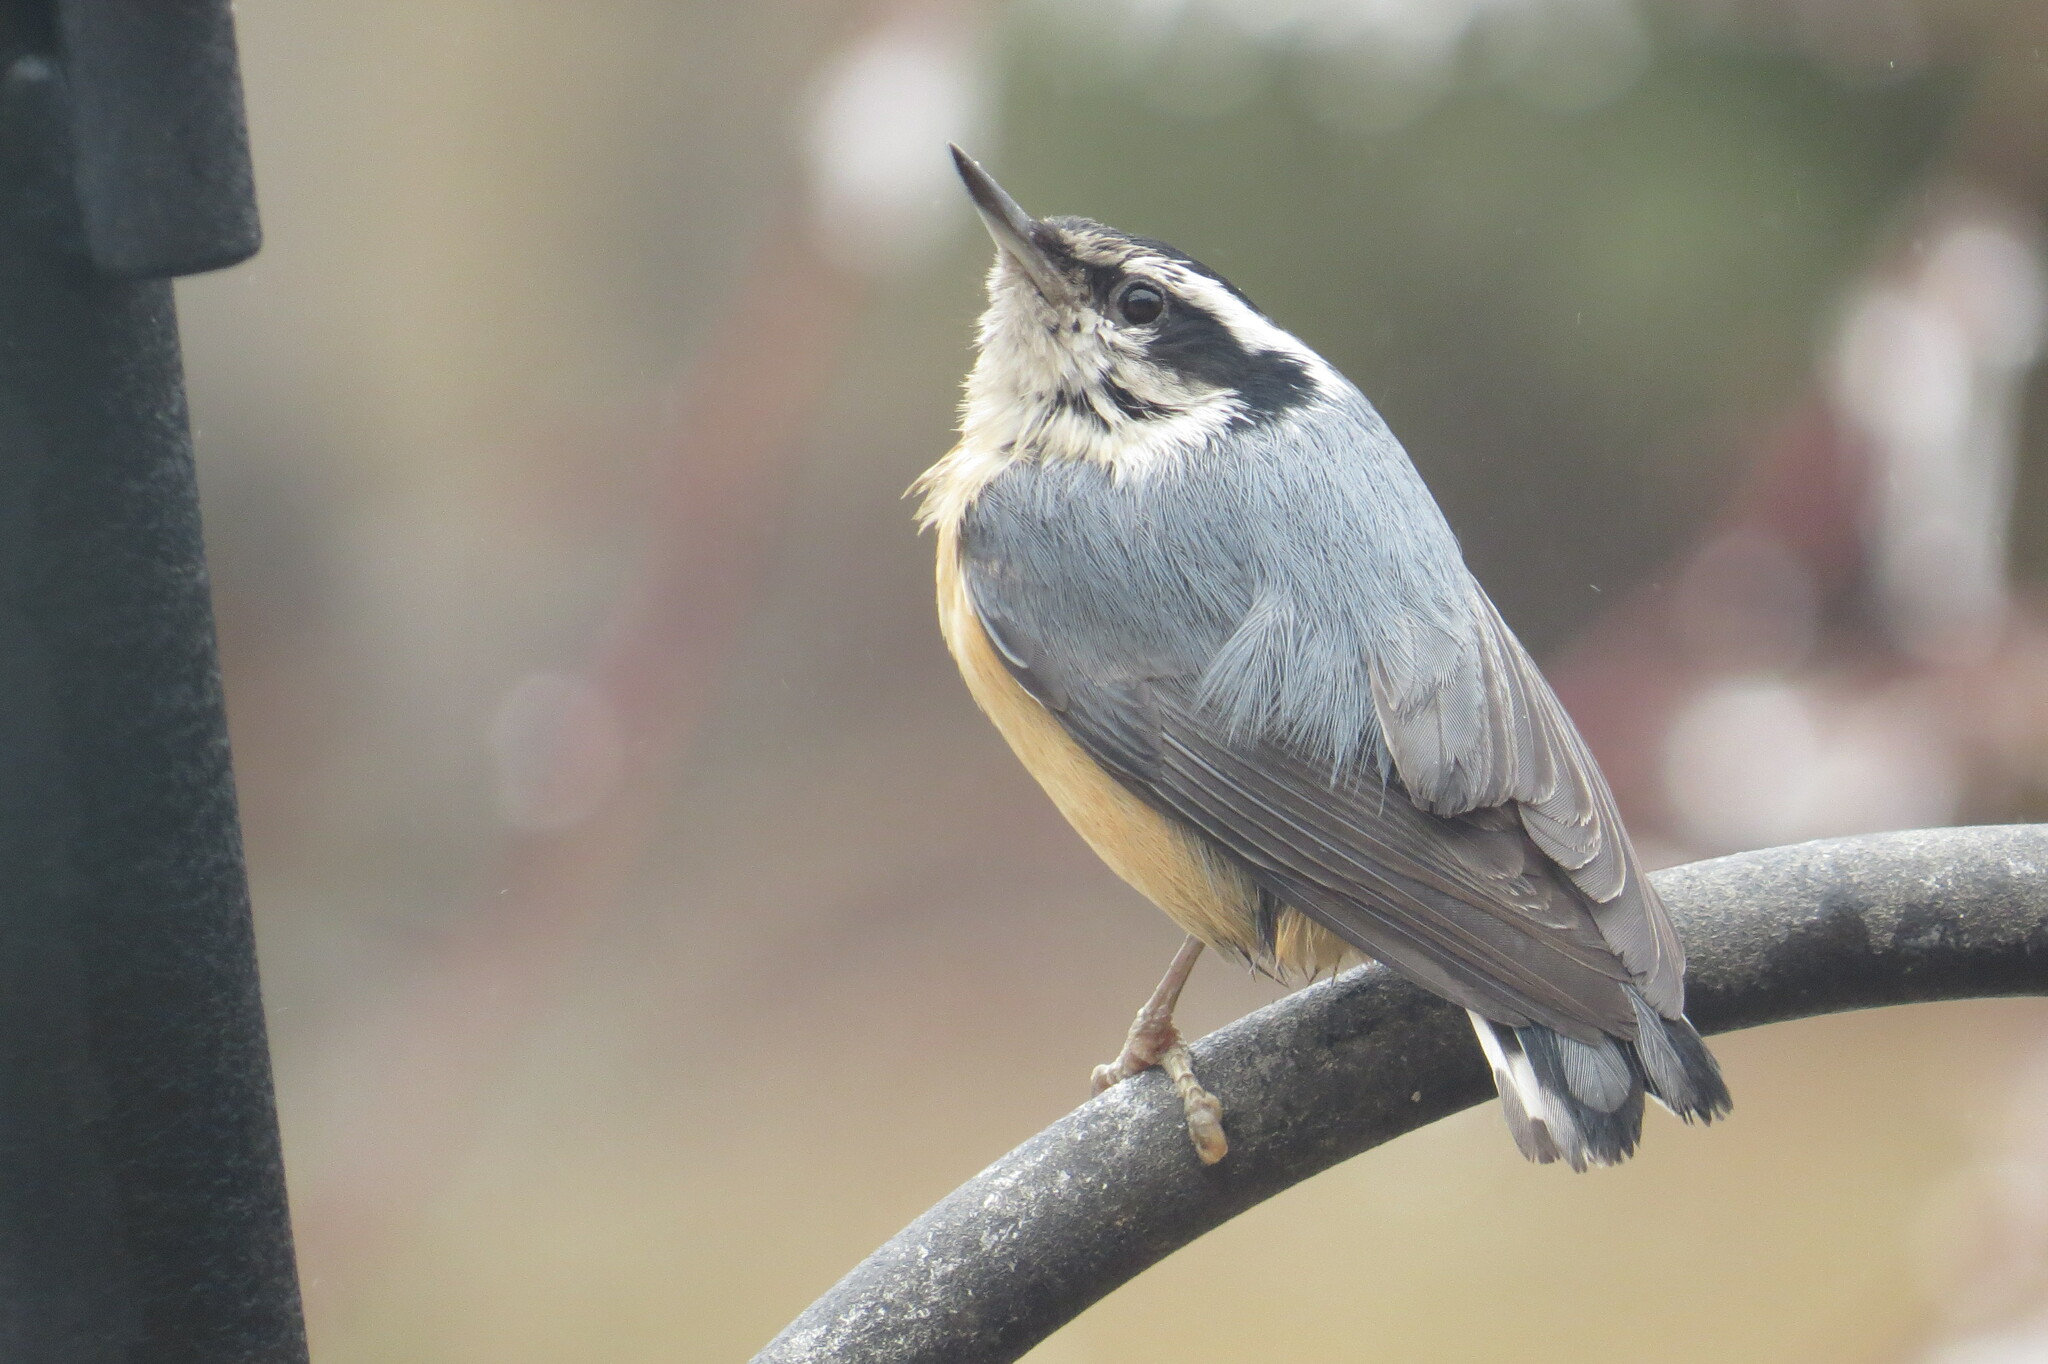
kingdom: Animalia
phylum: Chordata
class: Aves
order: Passeriformes
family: Sittidae
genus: Sitta
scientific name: Sitta canadensis
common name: Red-breasted nuthatch
